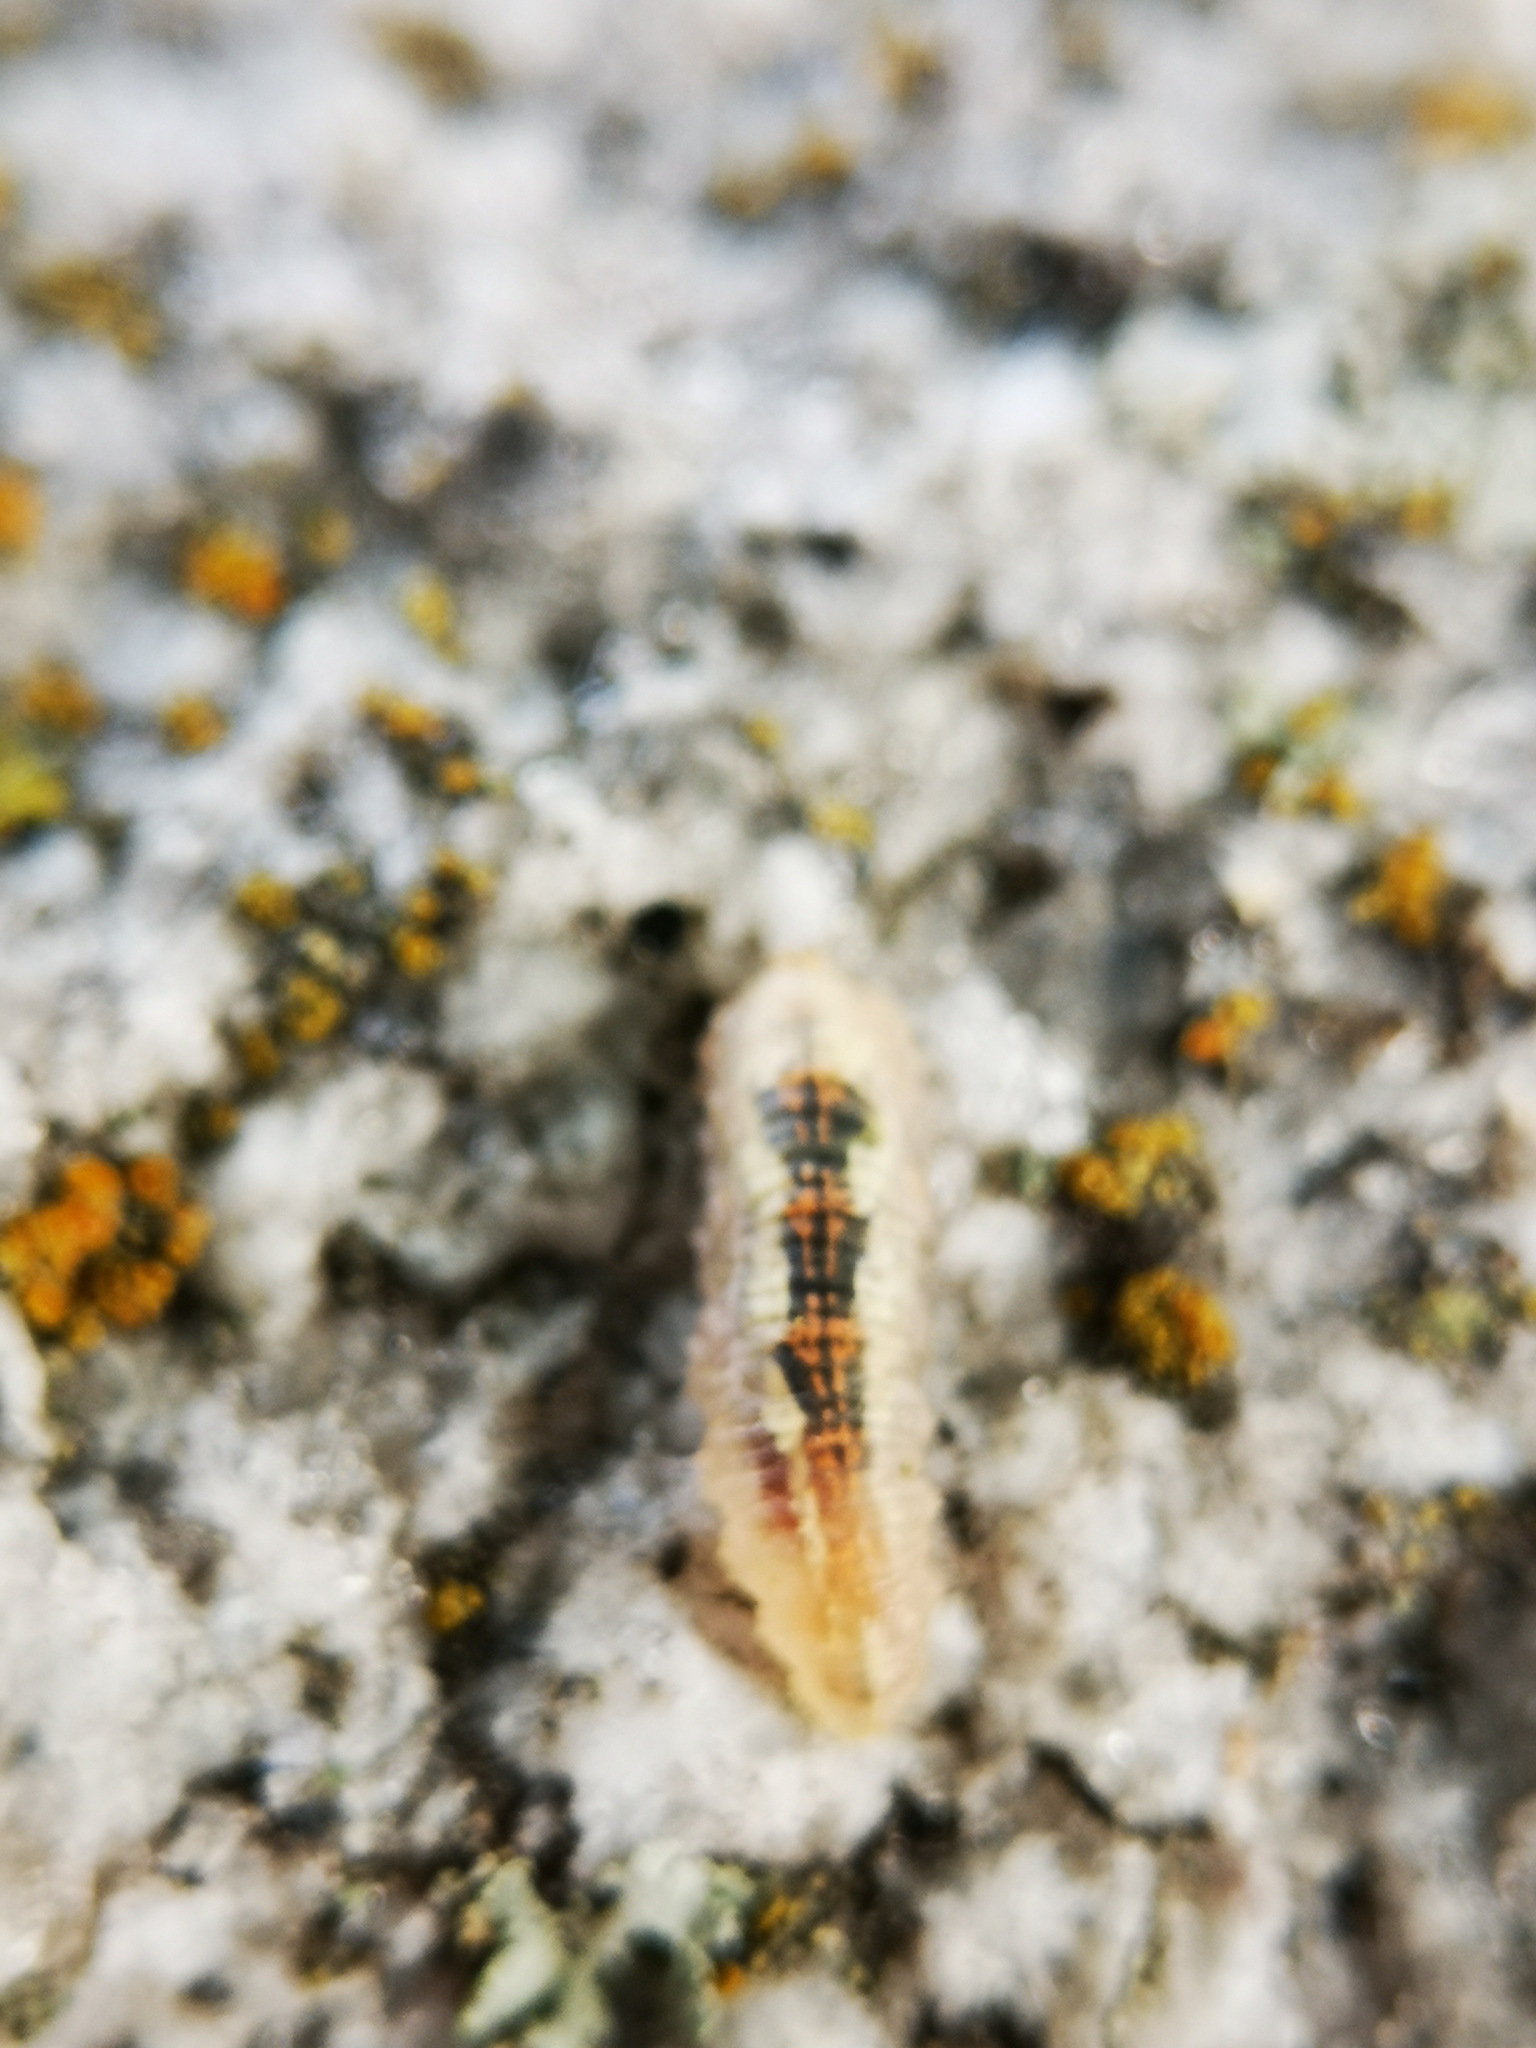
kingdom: Animalia
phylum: Arthropoda
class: Insecta
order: Diptera
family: Syrphidae
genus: Syrphus
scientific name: Syrphus
